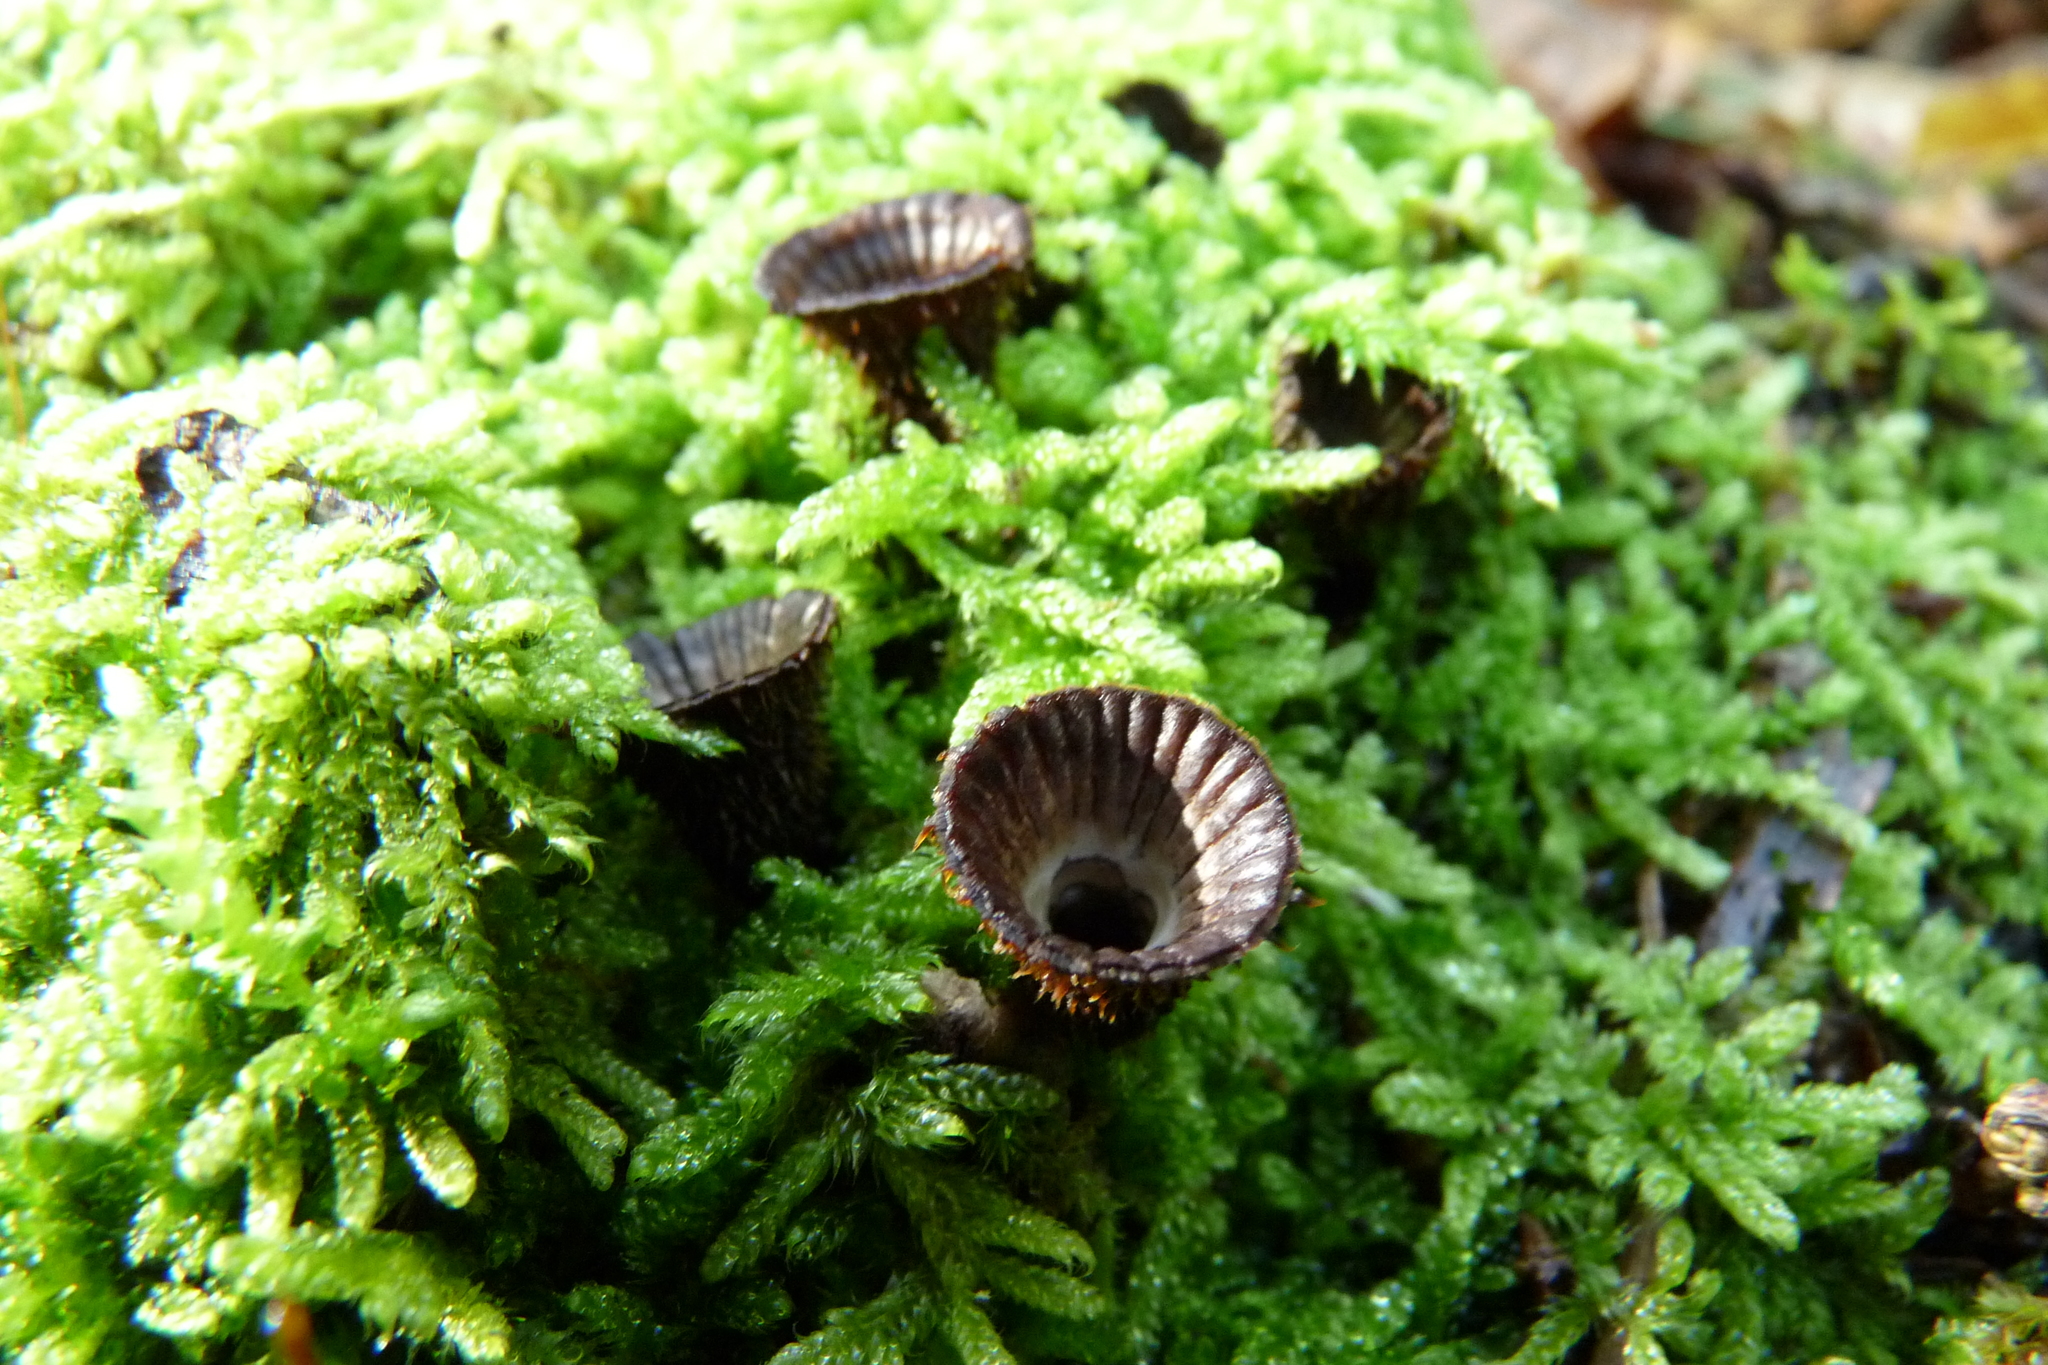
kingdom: Fungi
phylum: Basidiomycota
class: Agaricomycetes
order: Agaricales
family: Agaricaceae
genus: Cyathus
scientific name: Cyathus striatus
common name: Fluted bird's nest
